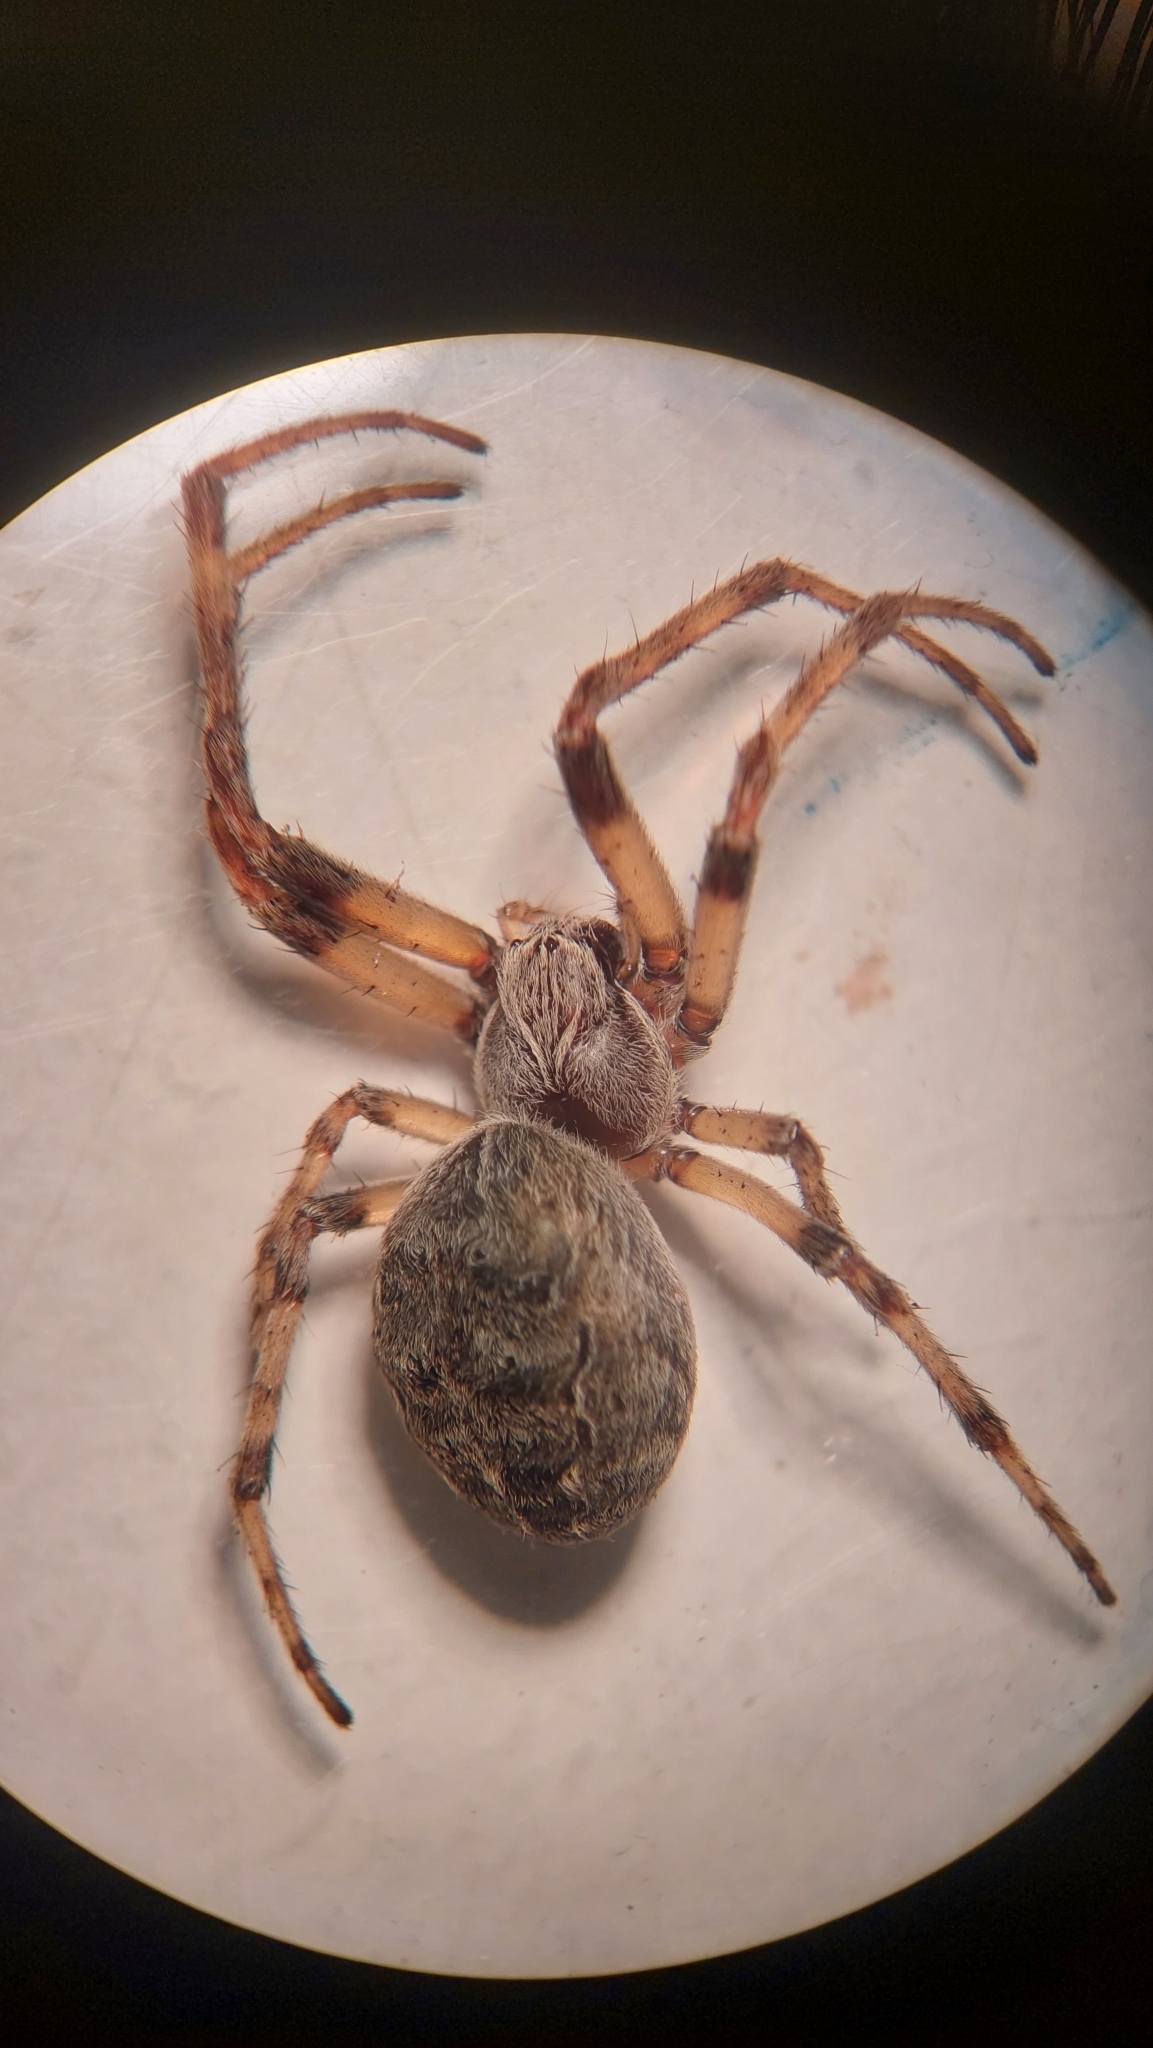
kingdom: Animalia
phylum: Arthropoda
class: Arachnida
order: Araneae
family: Araneidae
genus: Larinioides
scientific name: Larinioides sclopetarius
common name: Bridge orbweaver
